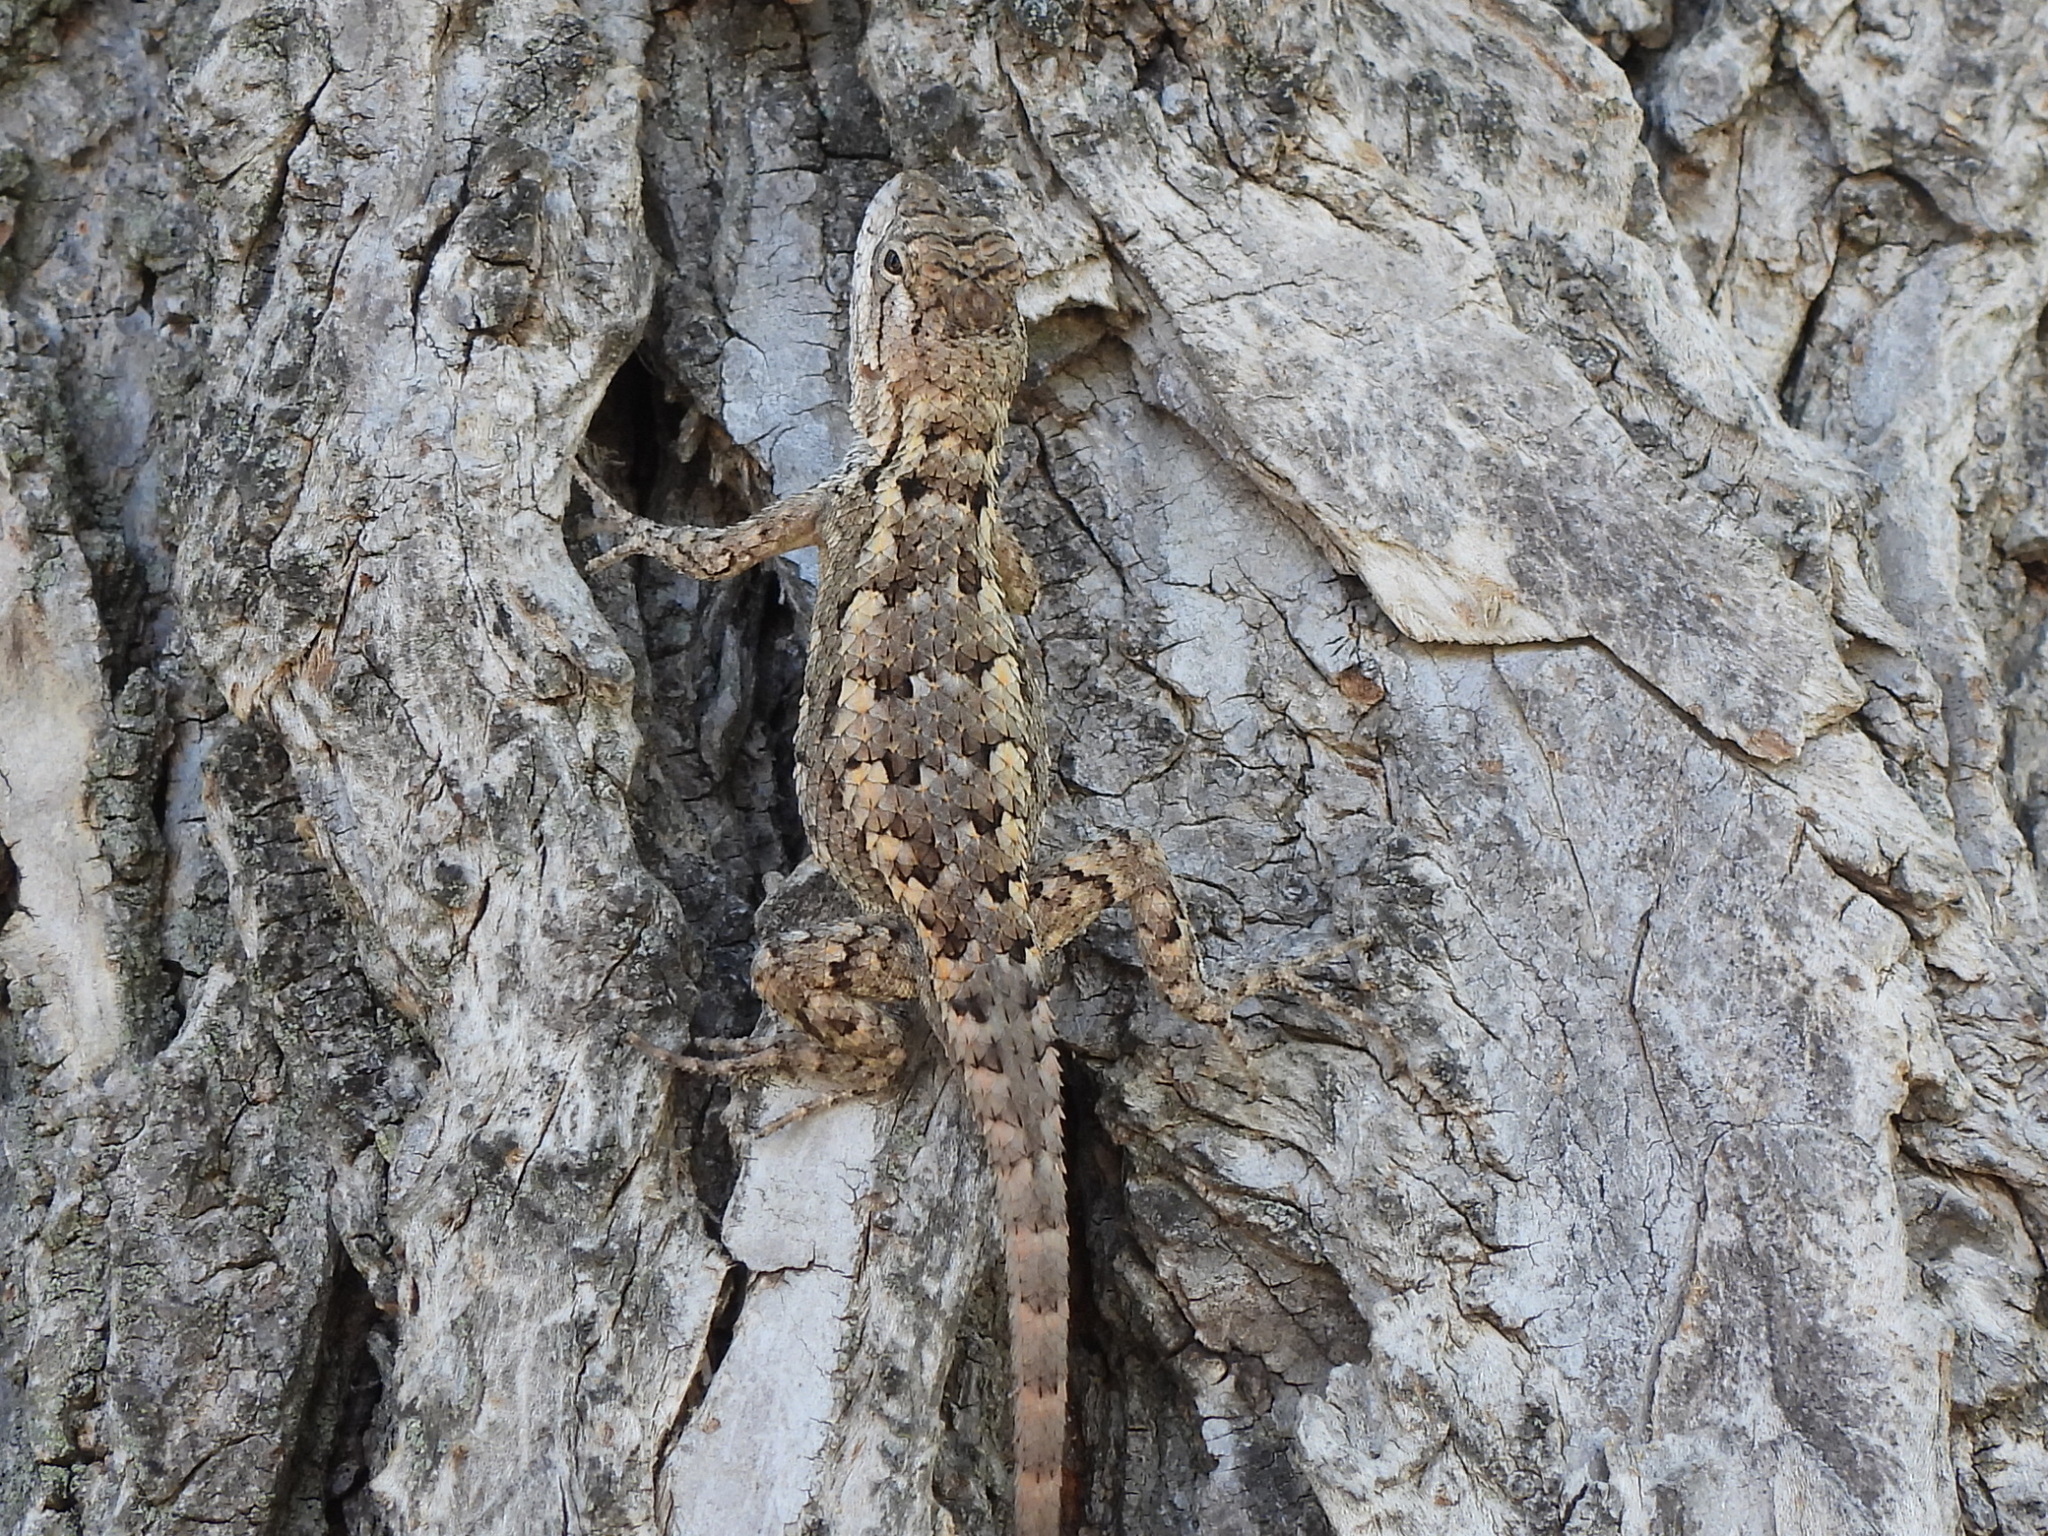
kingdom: Animalia
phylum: Chordata
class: Squamata
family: Phrynosomatidae
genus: Sceloporus
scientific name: Sceloporus olivaceus
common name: Texas spiny lizard
